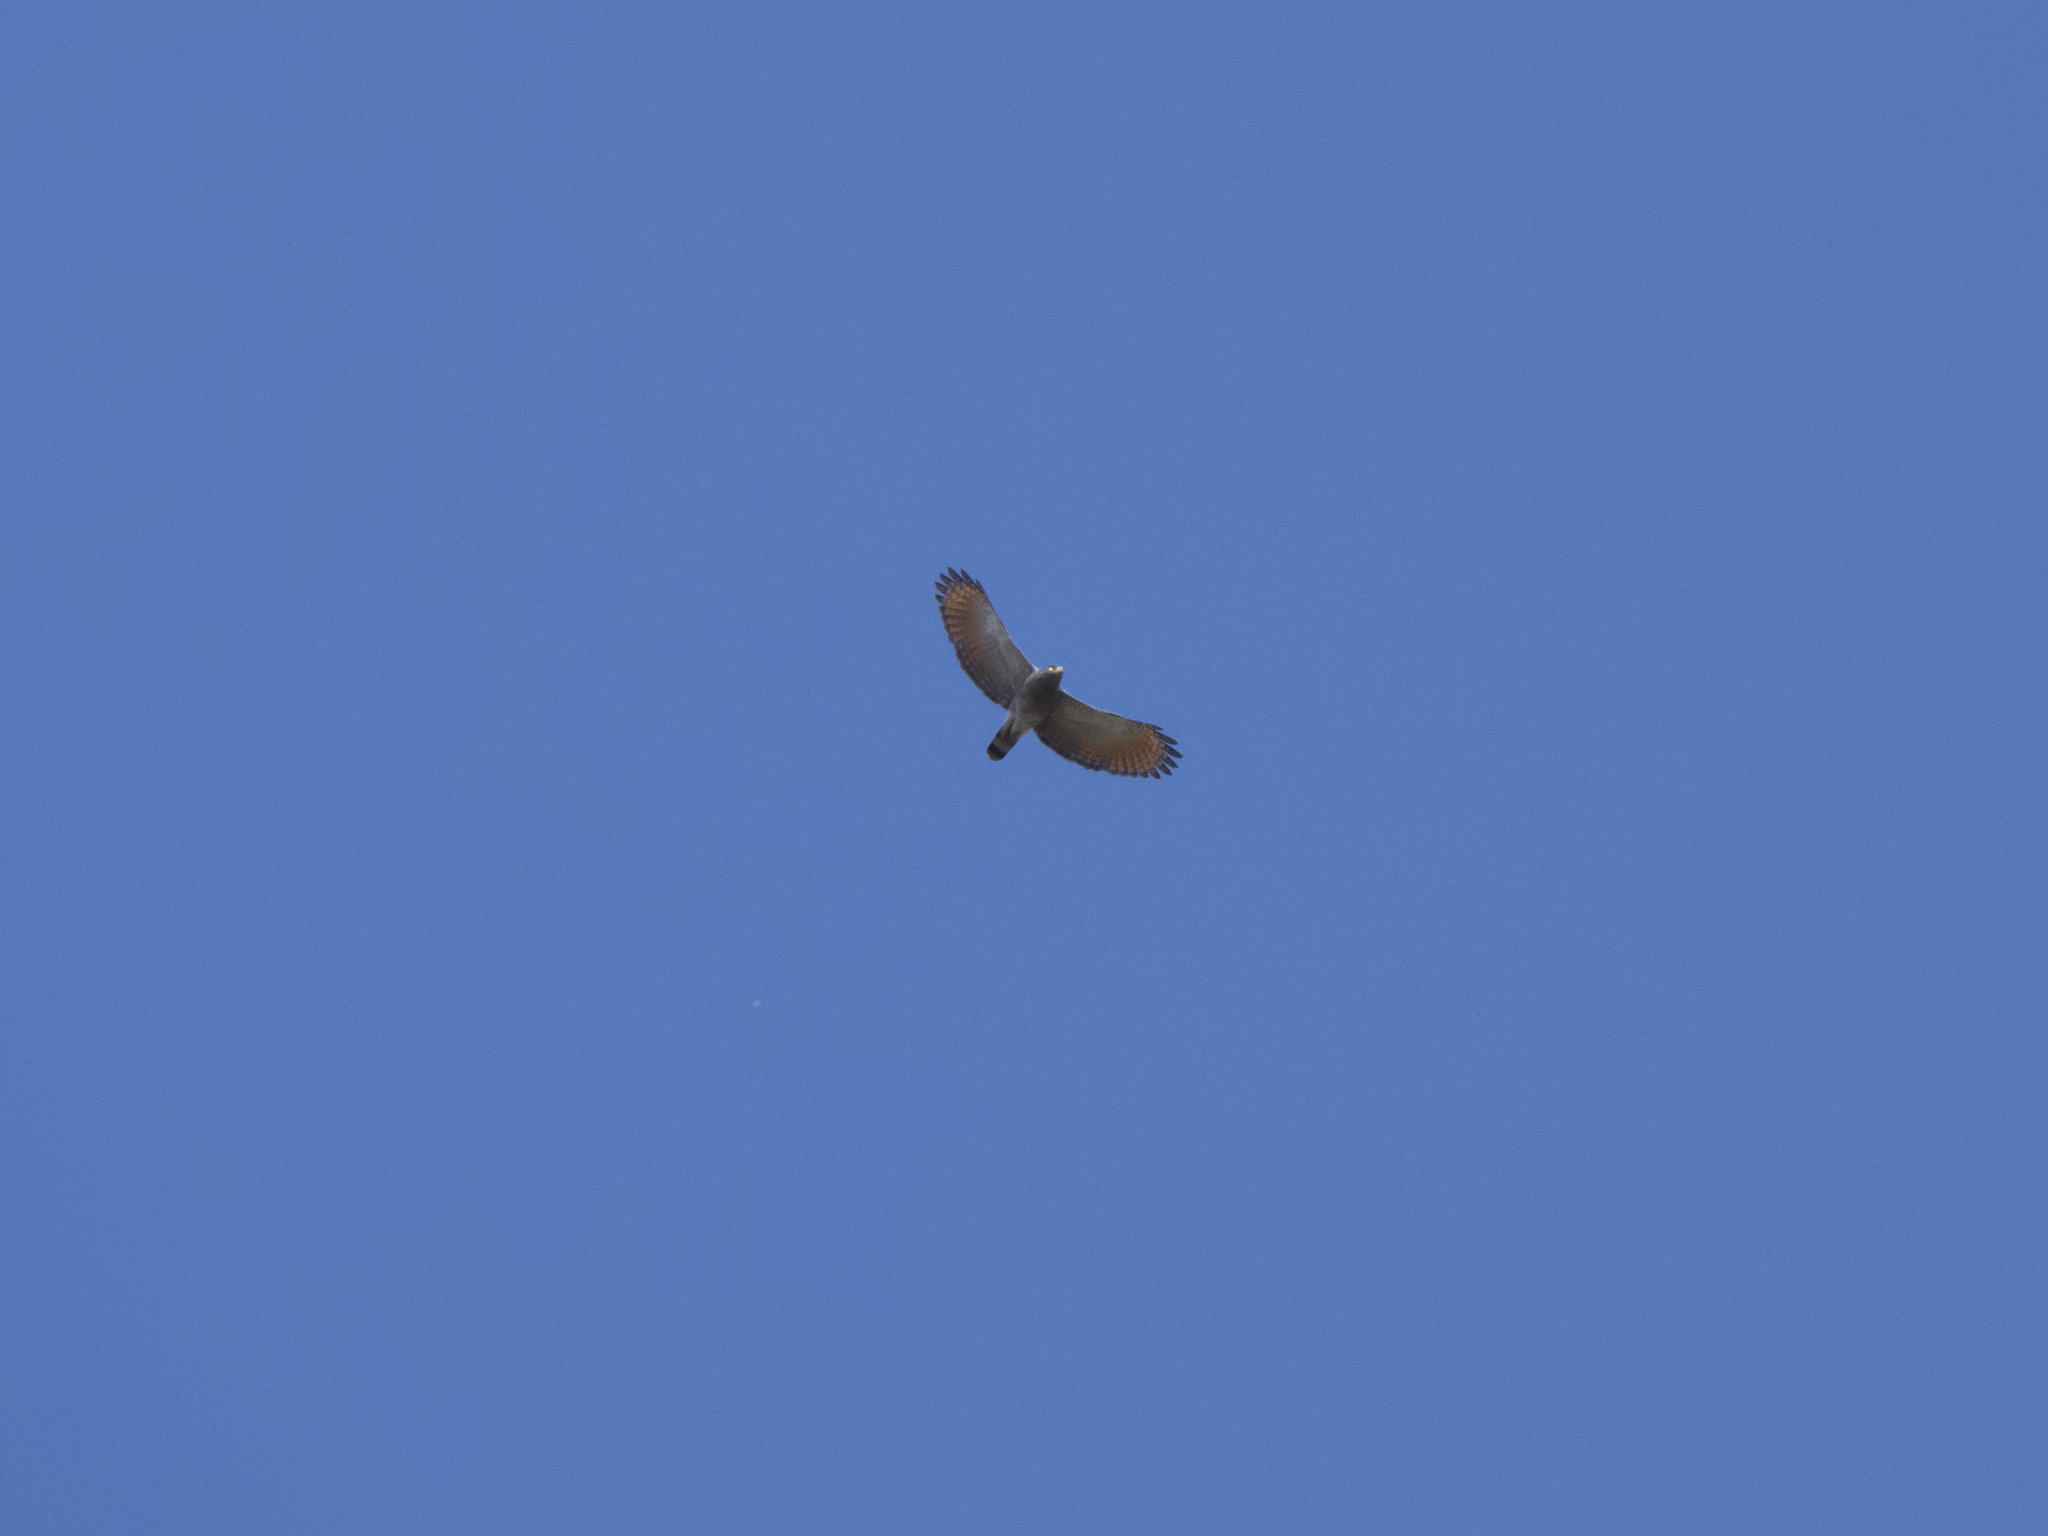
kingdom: Animalia
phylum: Chordata
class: Aves
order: Accipitriformes
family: Accipitridae
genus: Rupornis
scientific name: Rupornis magnirostris
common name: Roadside hawk
